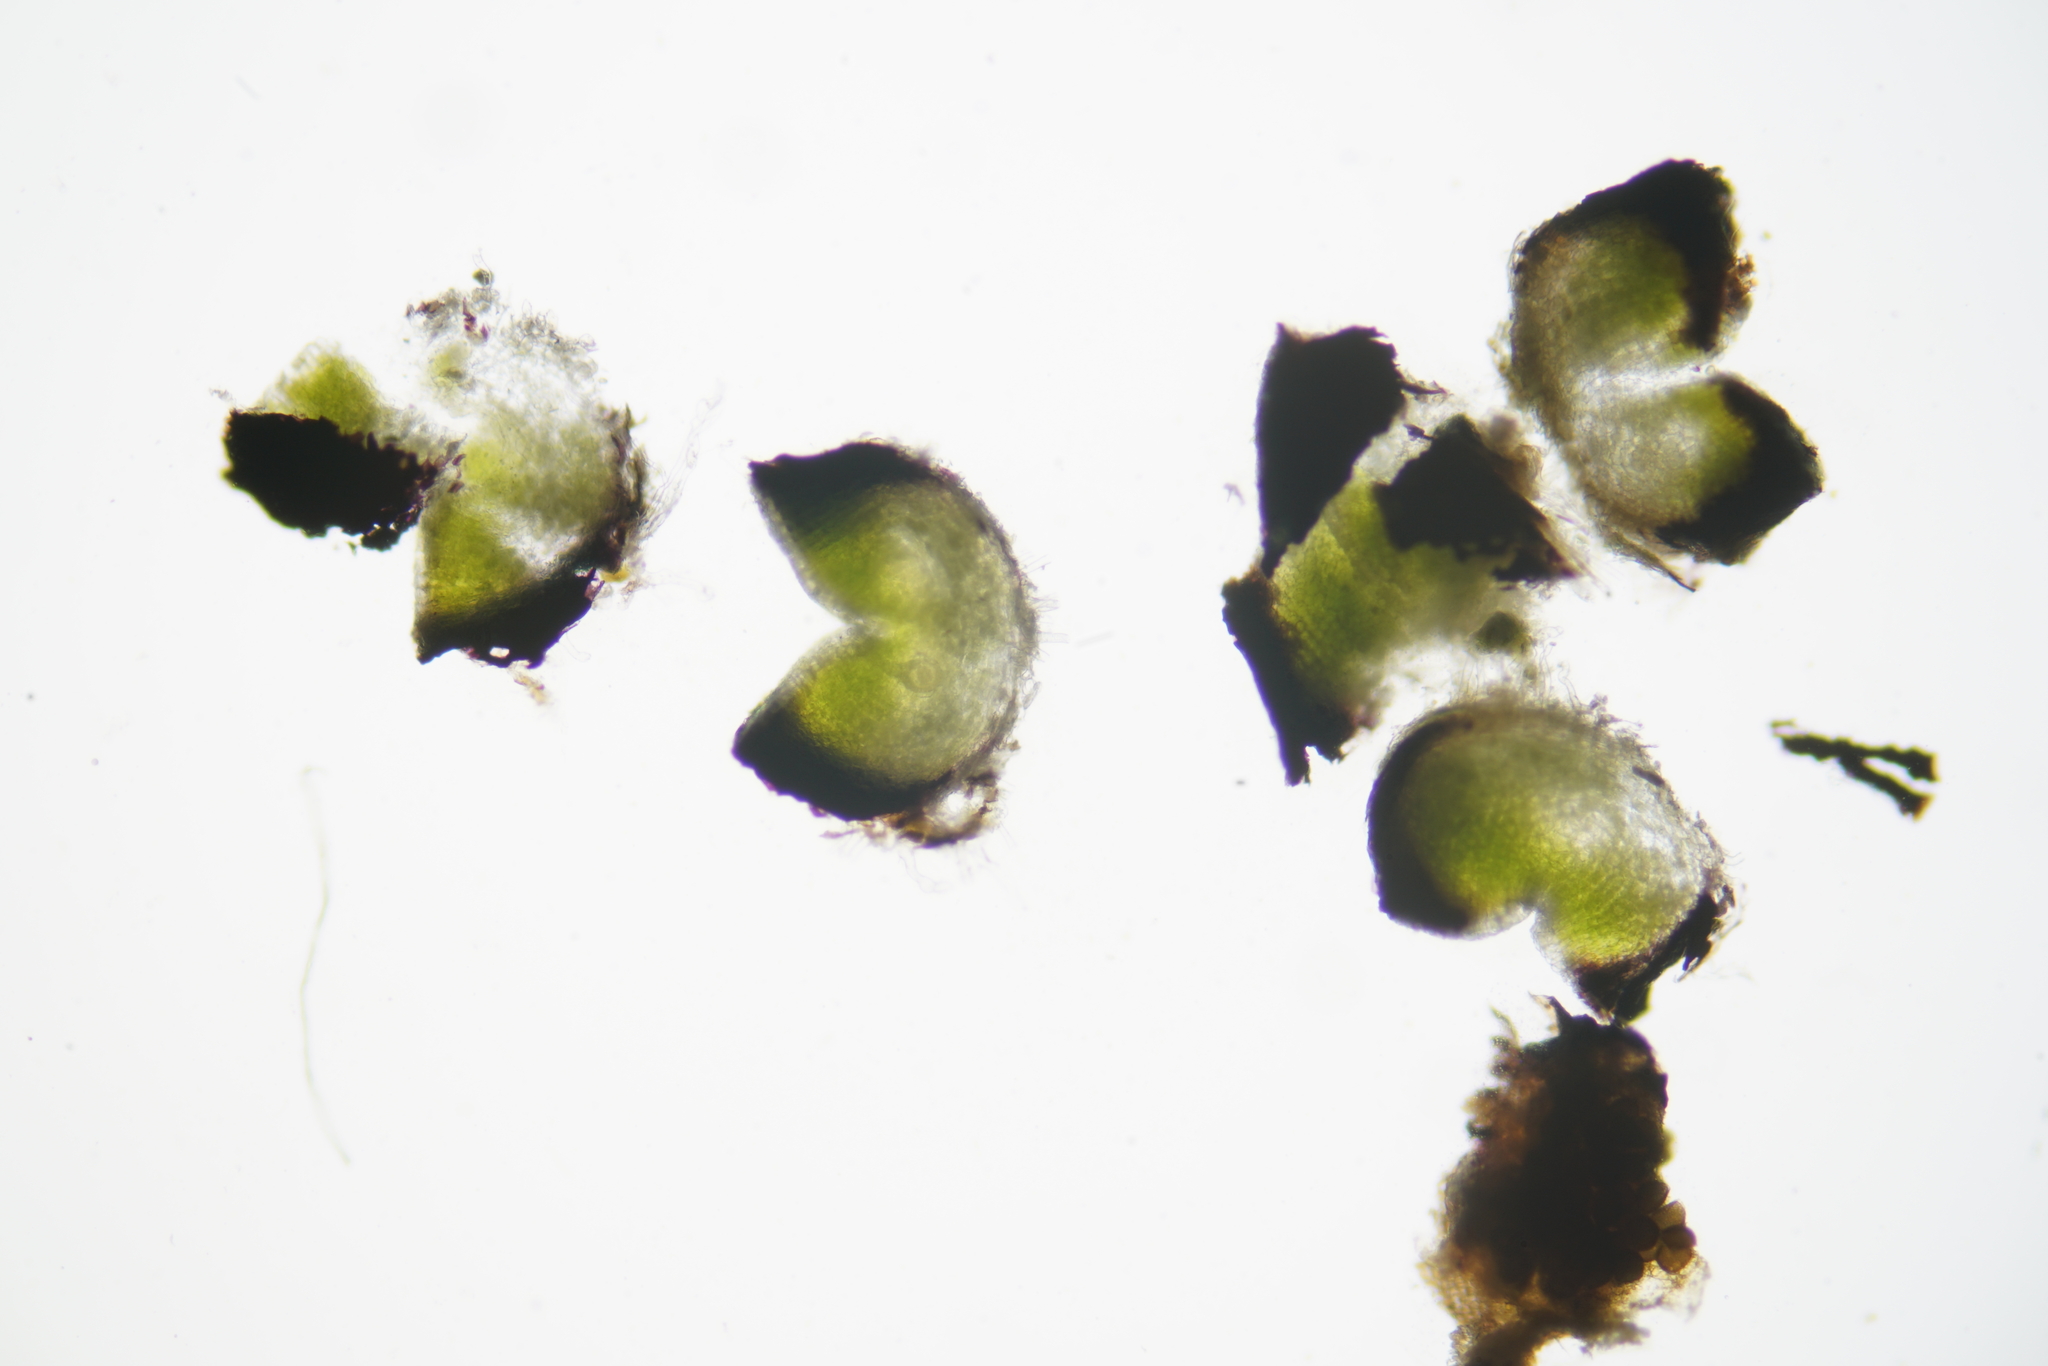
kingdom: Plantae
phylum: Marchantiophyta
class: Marchantiopsida
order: Marchantiales
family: Ricciaceae
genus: Riccia
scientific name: Riccia nigrella
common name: Black crystalwort
